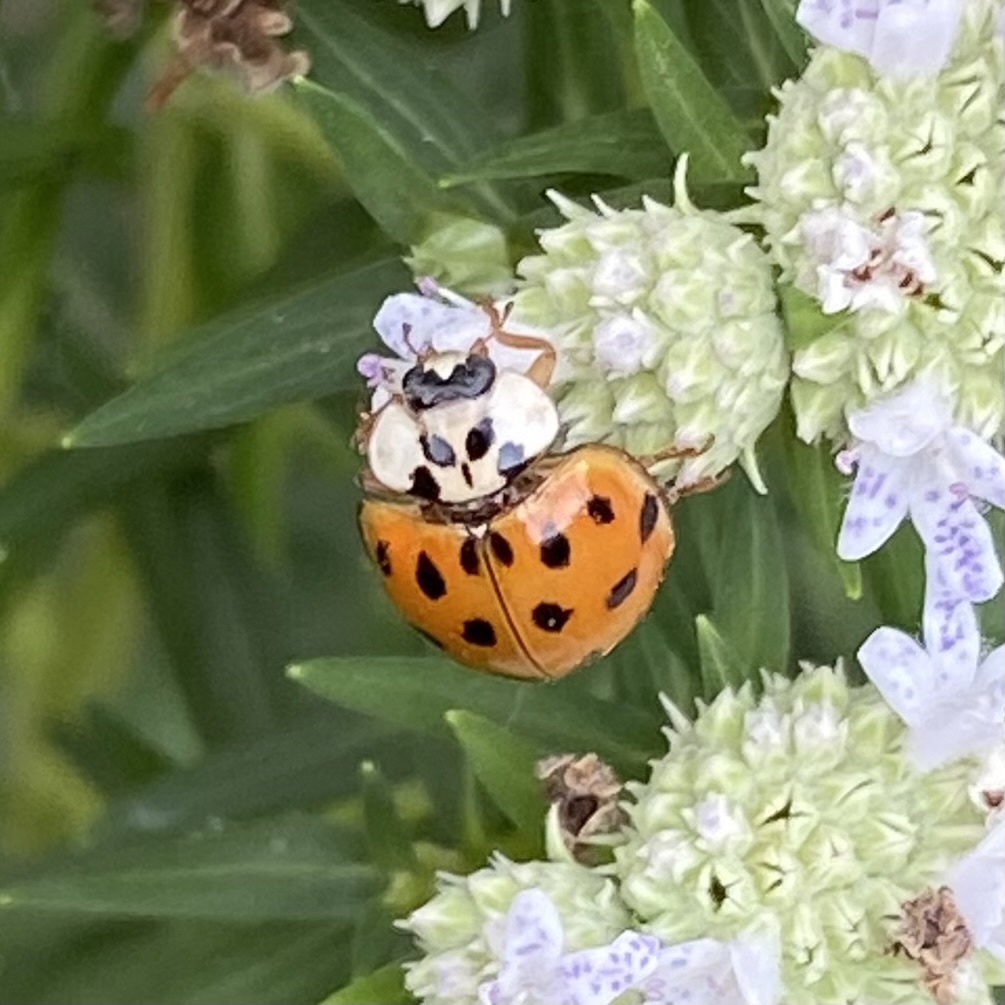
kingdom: Animalia
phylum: Arthropoda
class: Insecta
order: Coleoptera
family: Coccinellidae
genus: Harmonia
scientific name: Harmonia axyridis
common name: Harlequin ladybird
